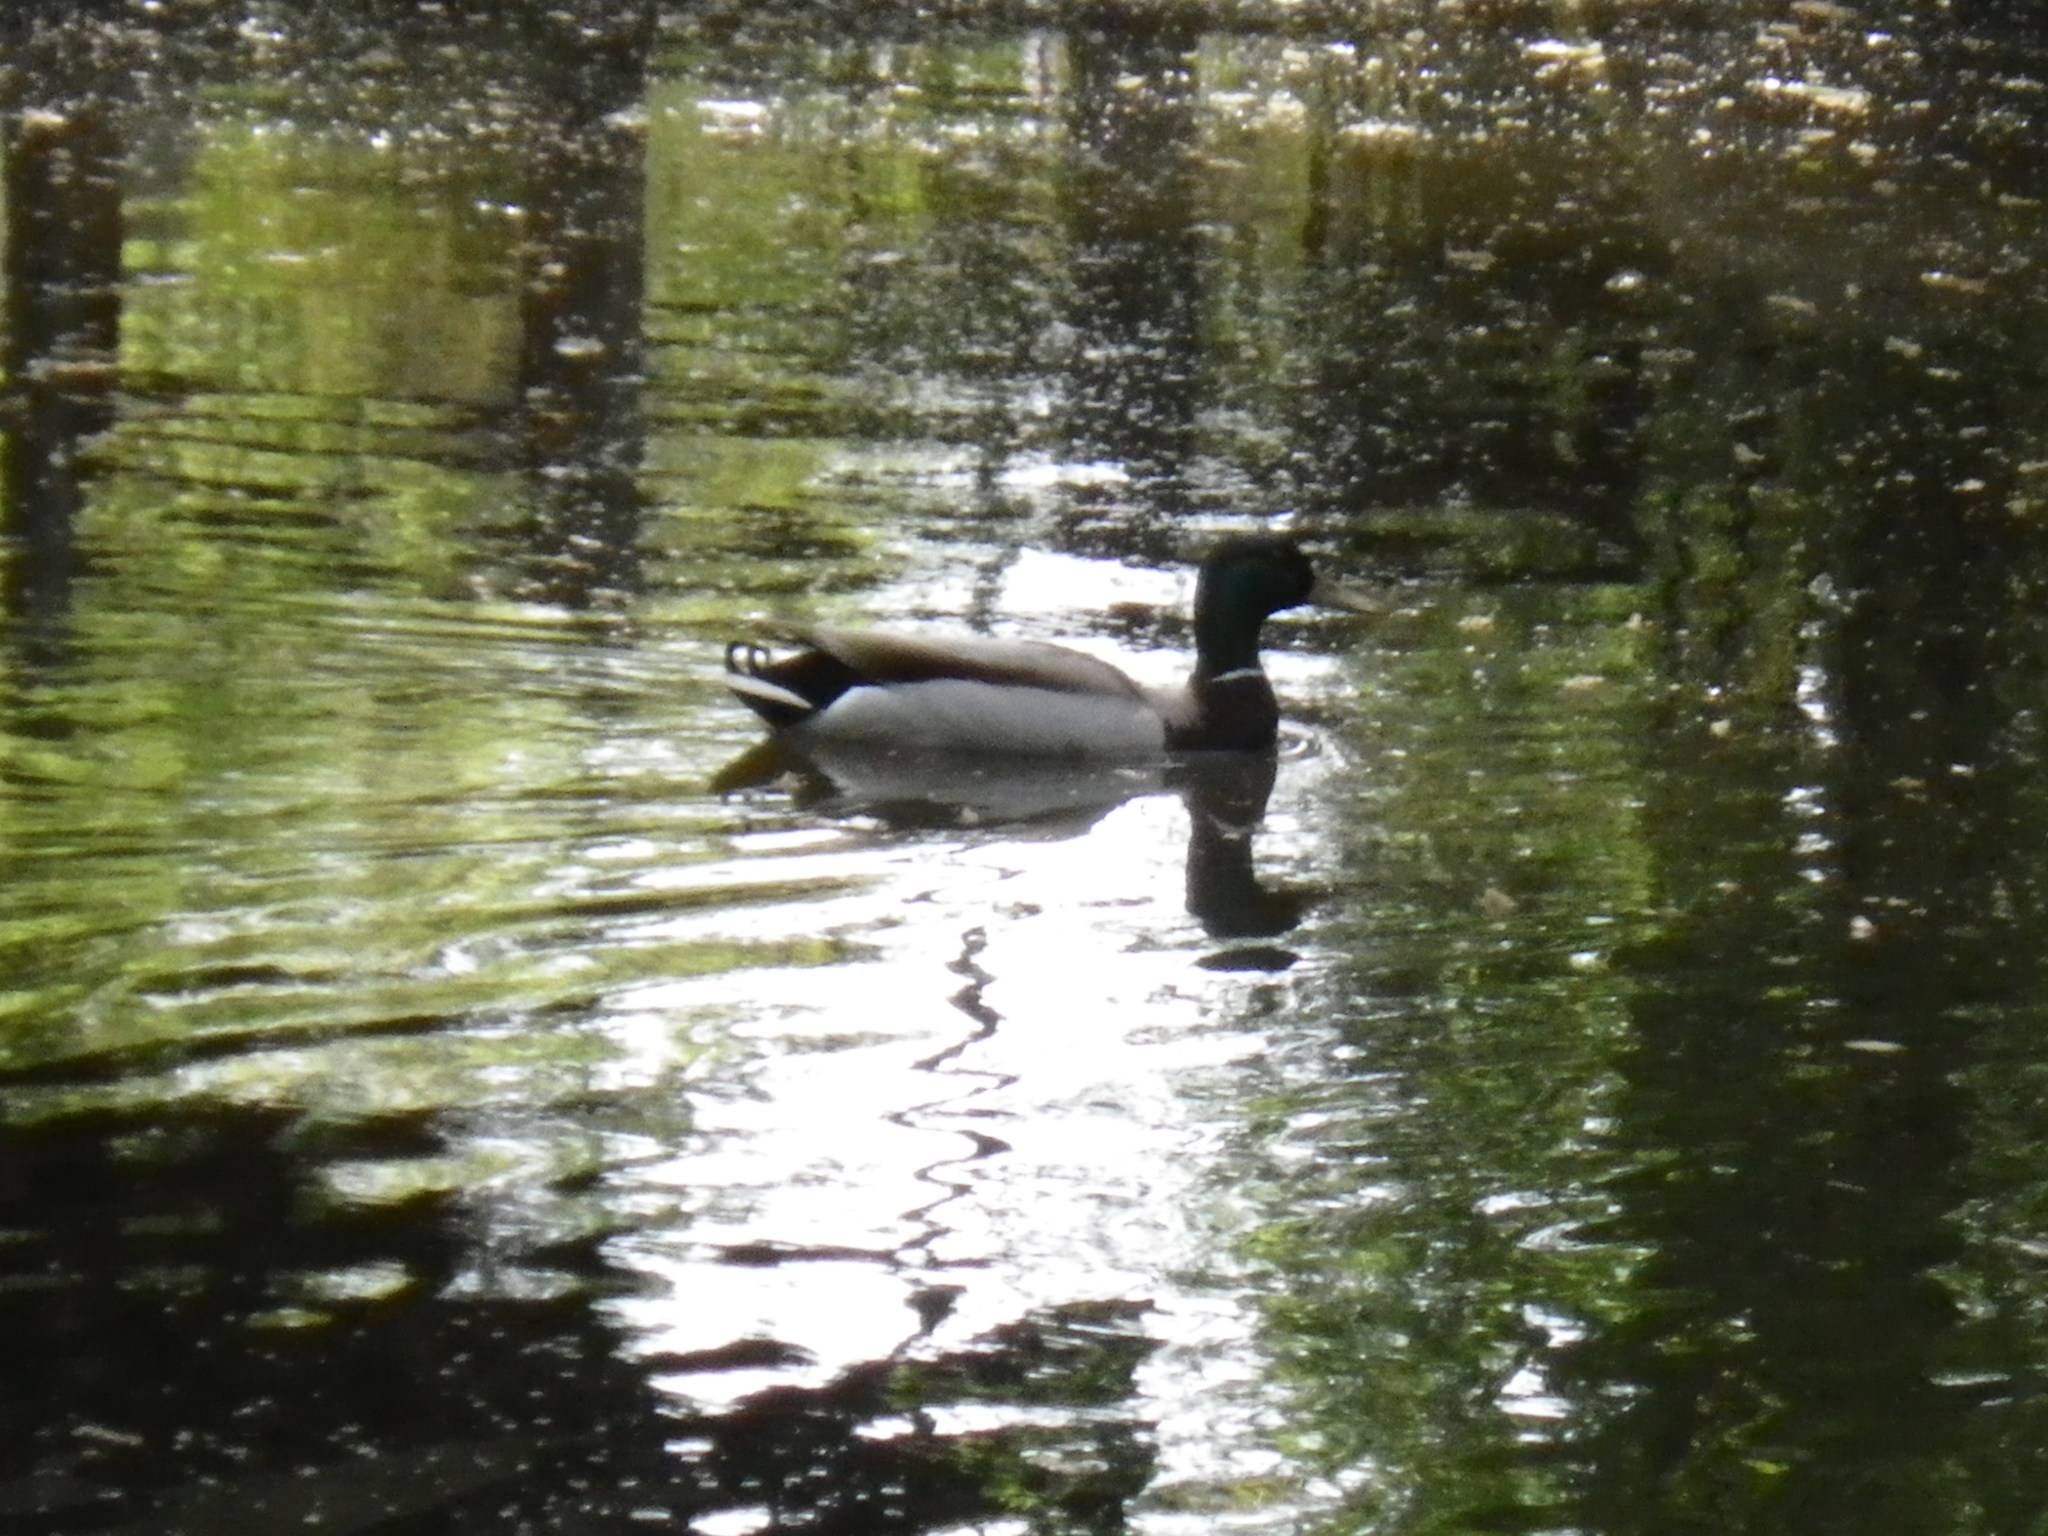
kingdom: Animalia
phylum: Chordata
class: Aves
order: Anseriformes
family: Anatidae
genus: Anas
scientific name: Anas platyrhynchos
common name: Mallard
